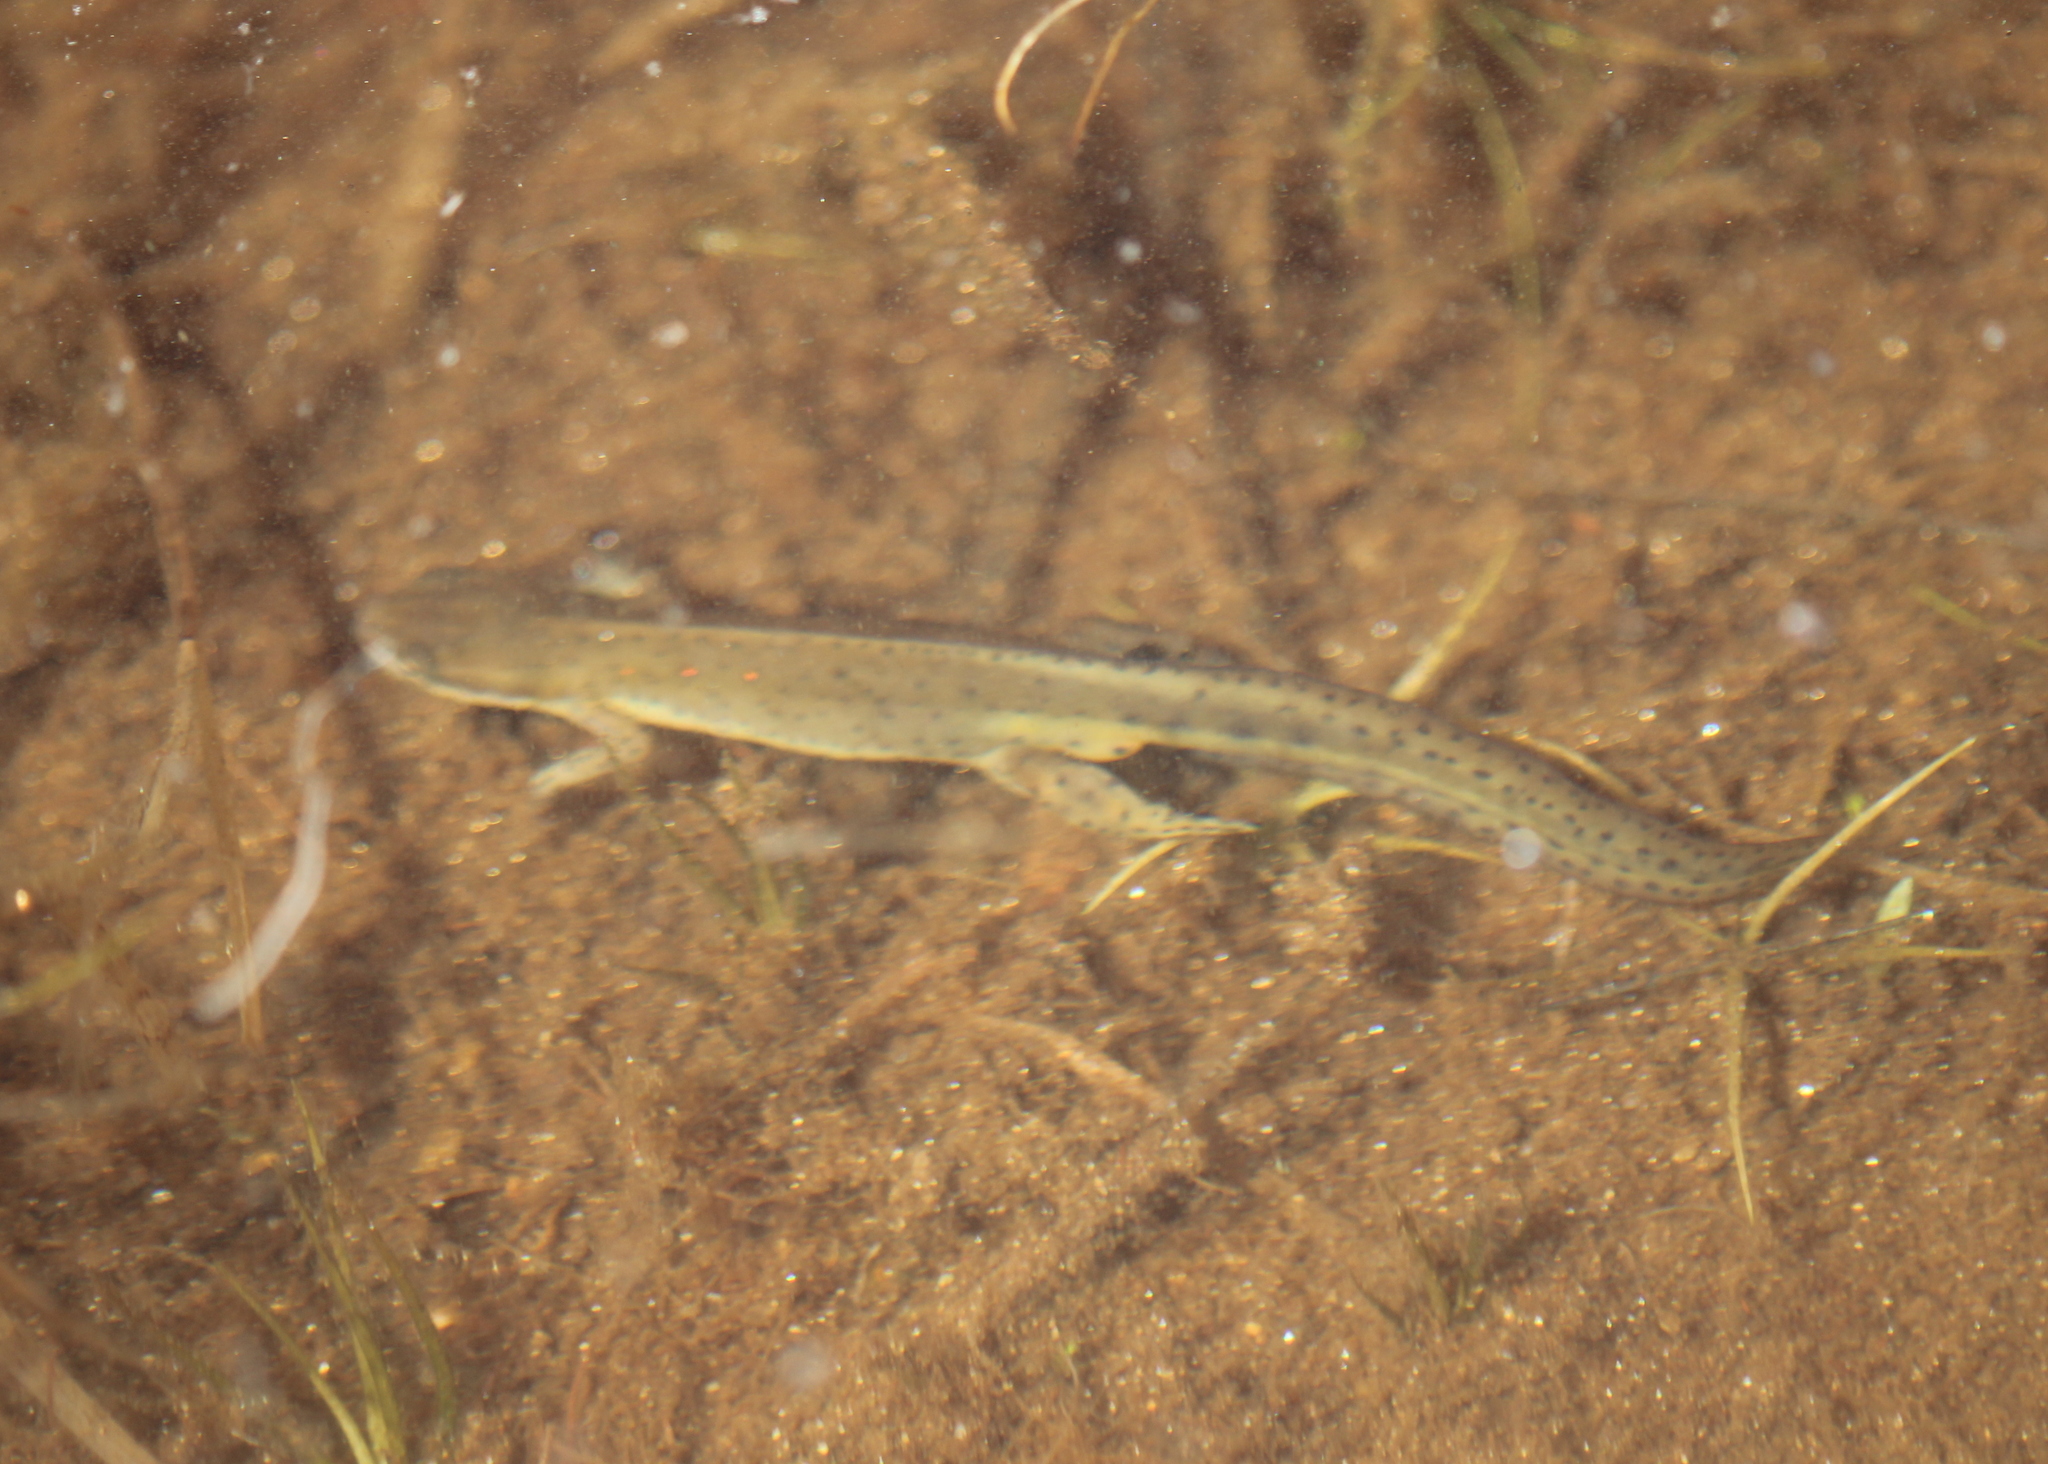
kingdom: Animalia
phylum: Chordata
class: Amphibia
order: Caudata
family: Salamandridae
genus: Notophthalmus
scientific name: Notophthalmus viridescens
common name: Eastern newt
